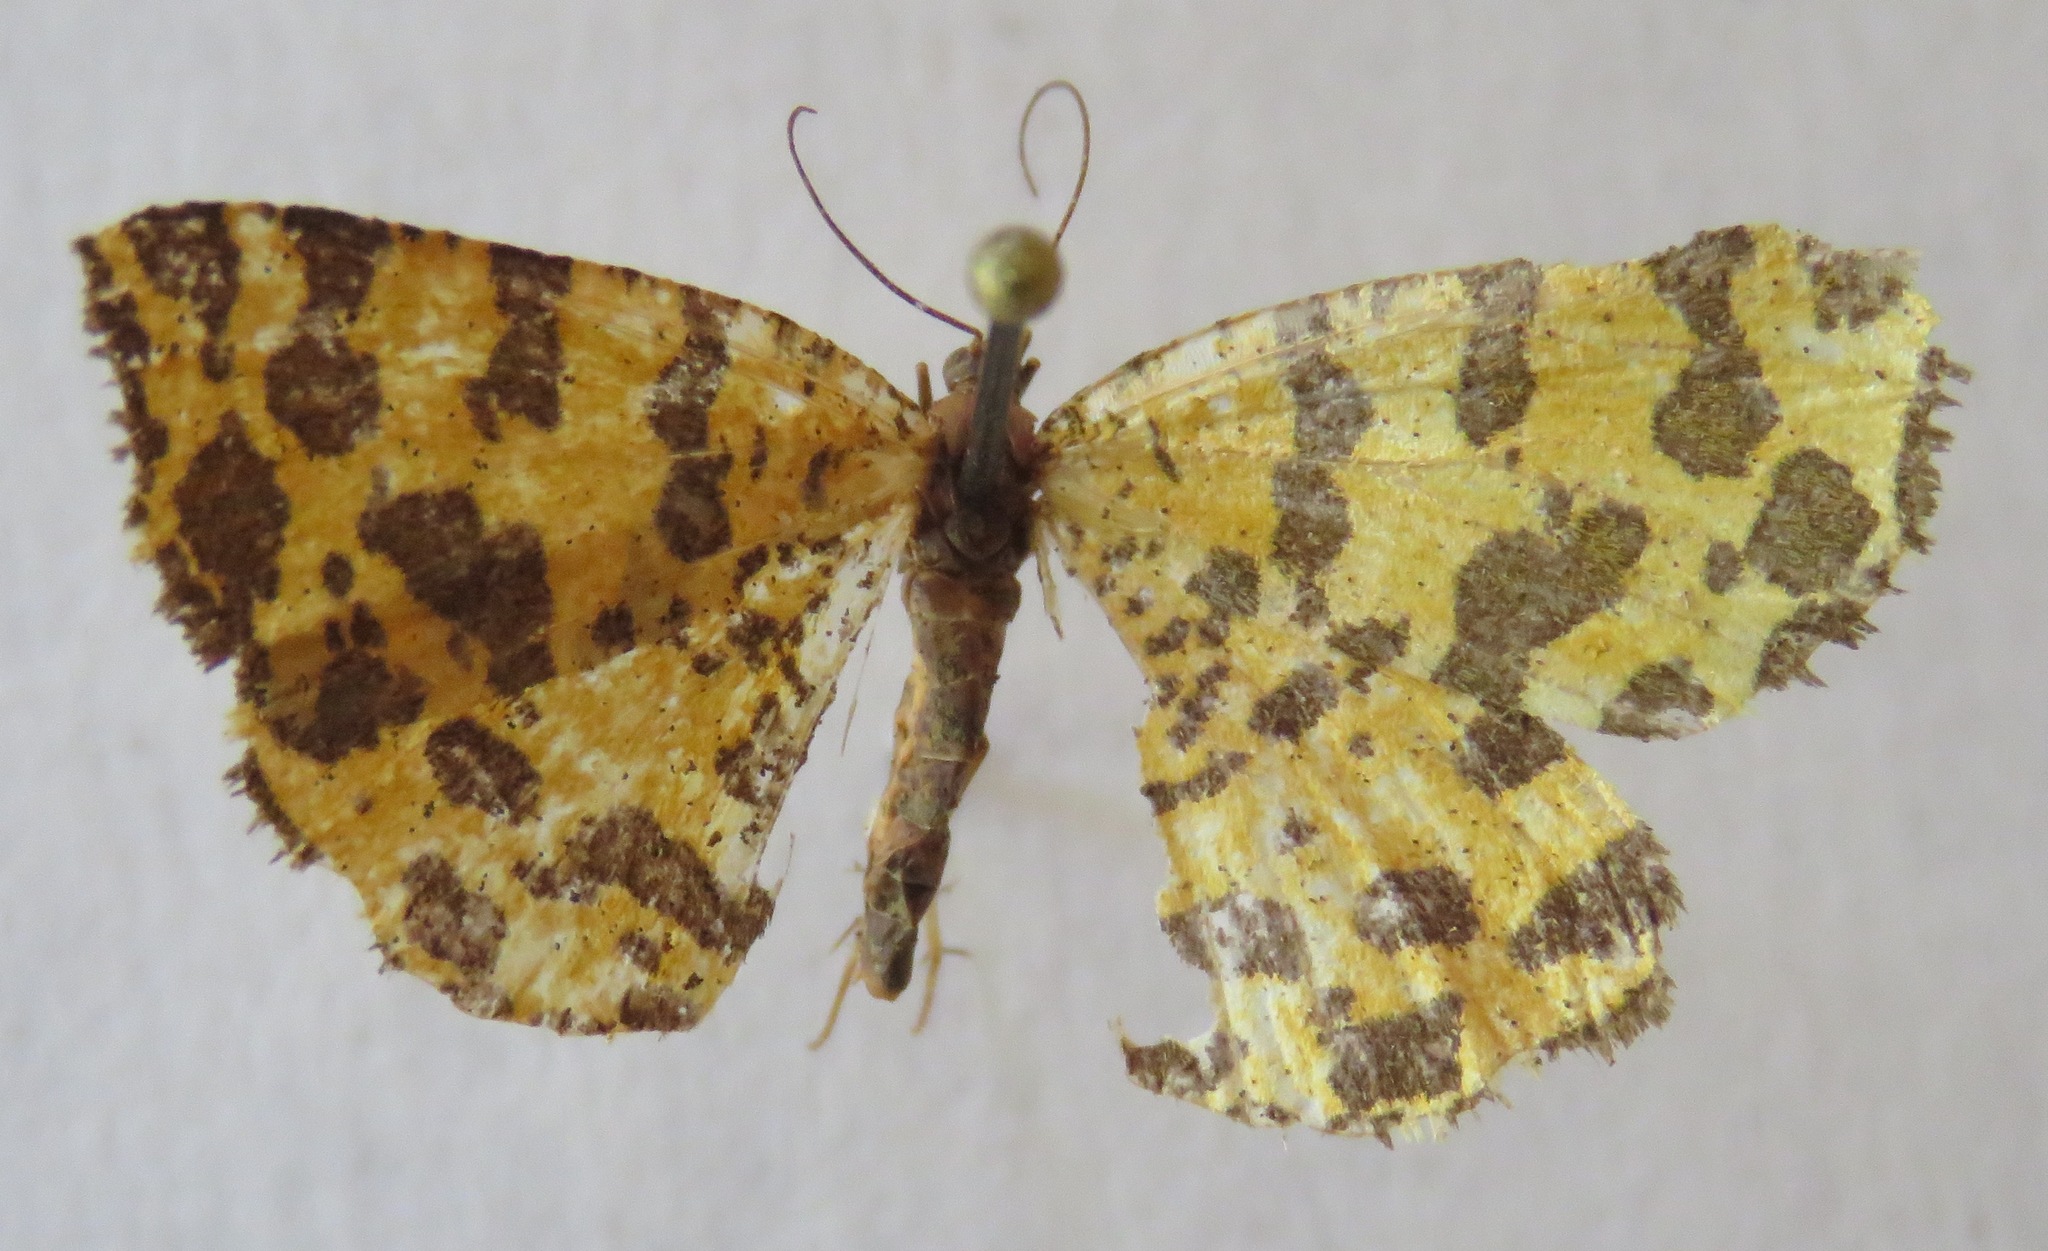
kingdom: Animalia
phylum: Arthropoda
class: Insecta
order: Lepidoptera
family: Geometridae
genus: Pseudopanthera
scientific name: Pseudopanthera macularia
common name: Speckled yellow
